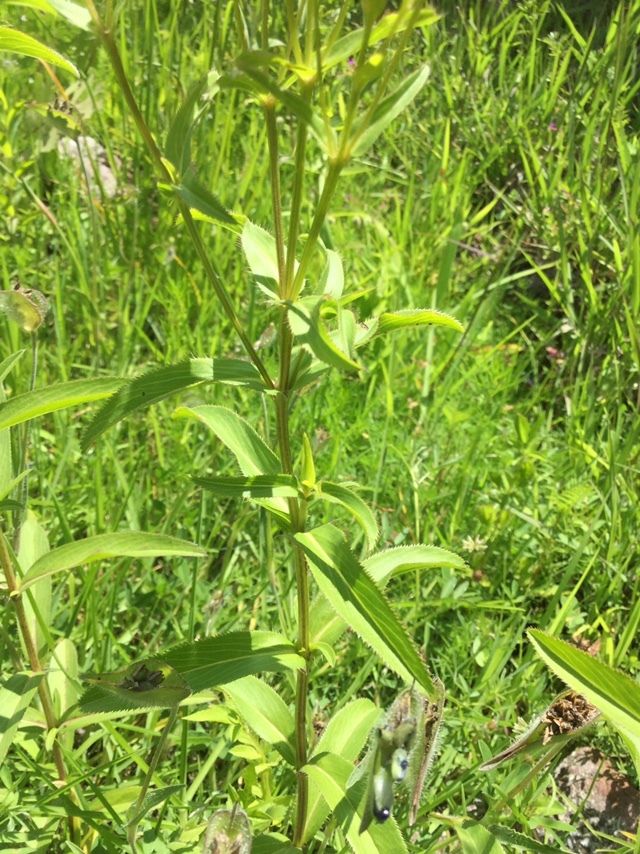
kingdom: Plantae
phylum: Tracheophyta
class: Magnoliopsida
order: Asterales
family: Asteraceae
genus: Tagetes
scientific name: Tagetes lucida
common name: Sweetscented marigold
